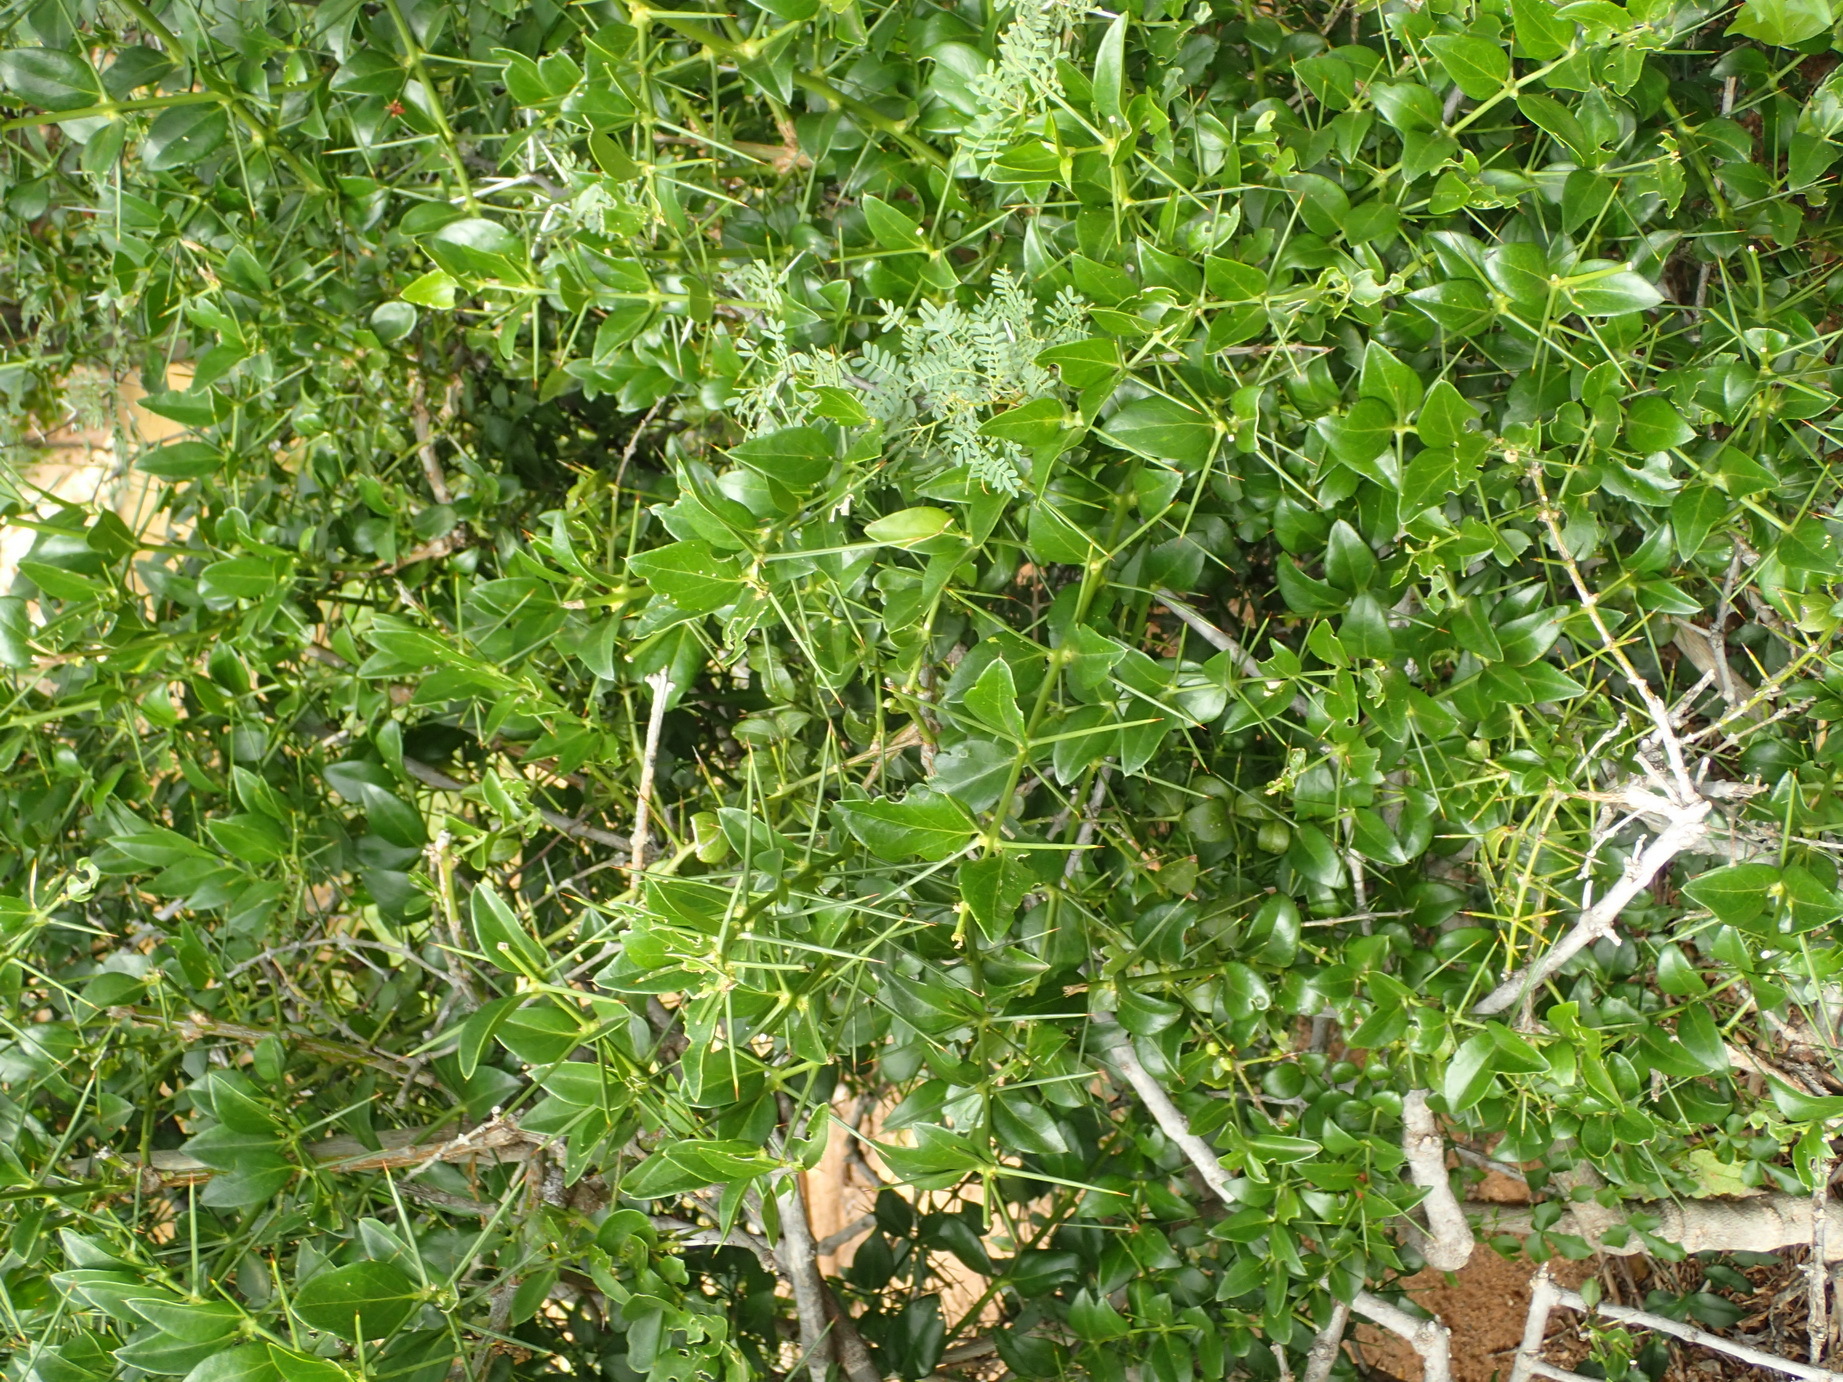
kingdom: Plantae
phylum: Tracheophyta
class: Magnoliopsida
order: Brassicales
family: Salvadoraceae
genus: Azima
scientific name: Azima tetracantha
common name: Needle bush
